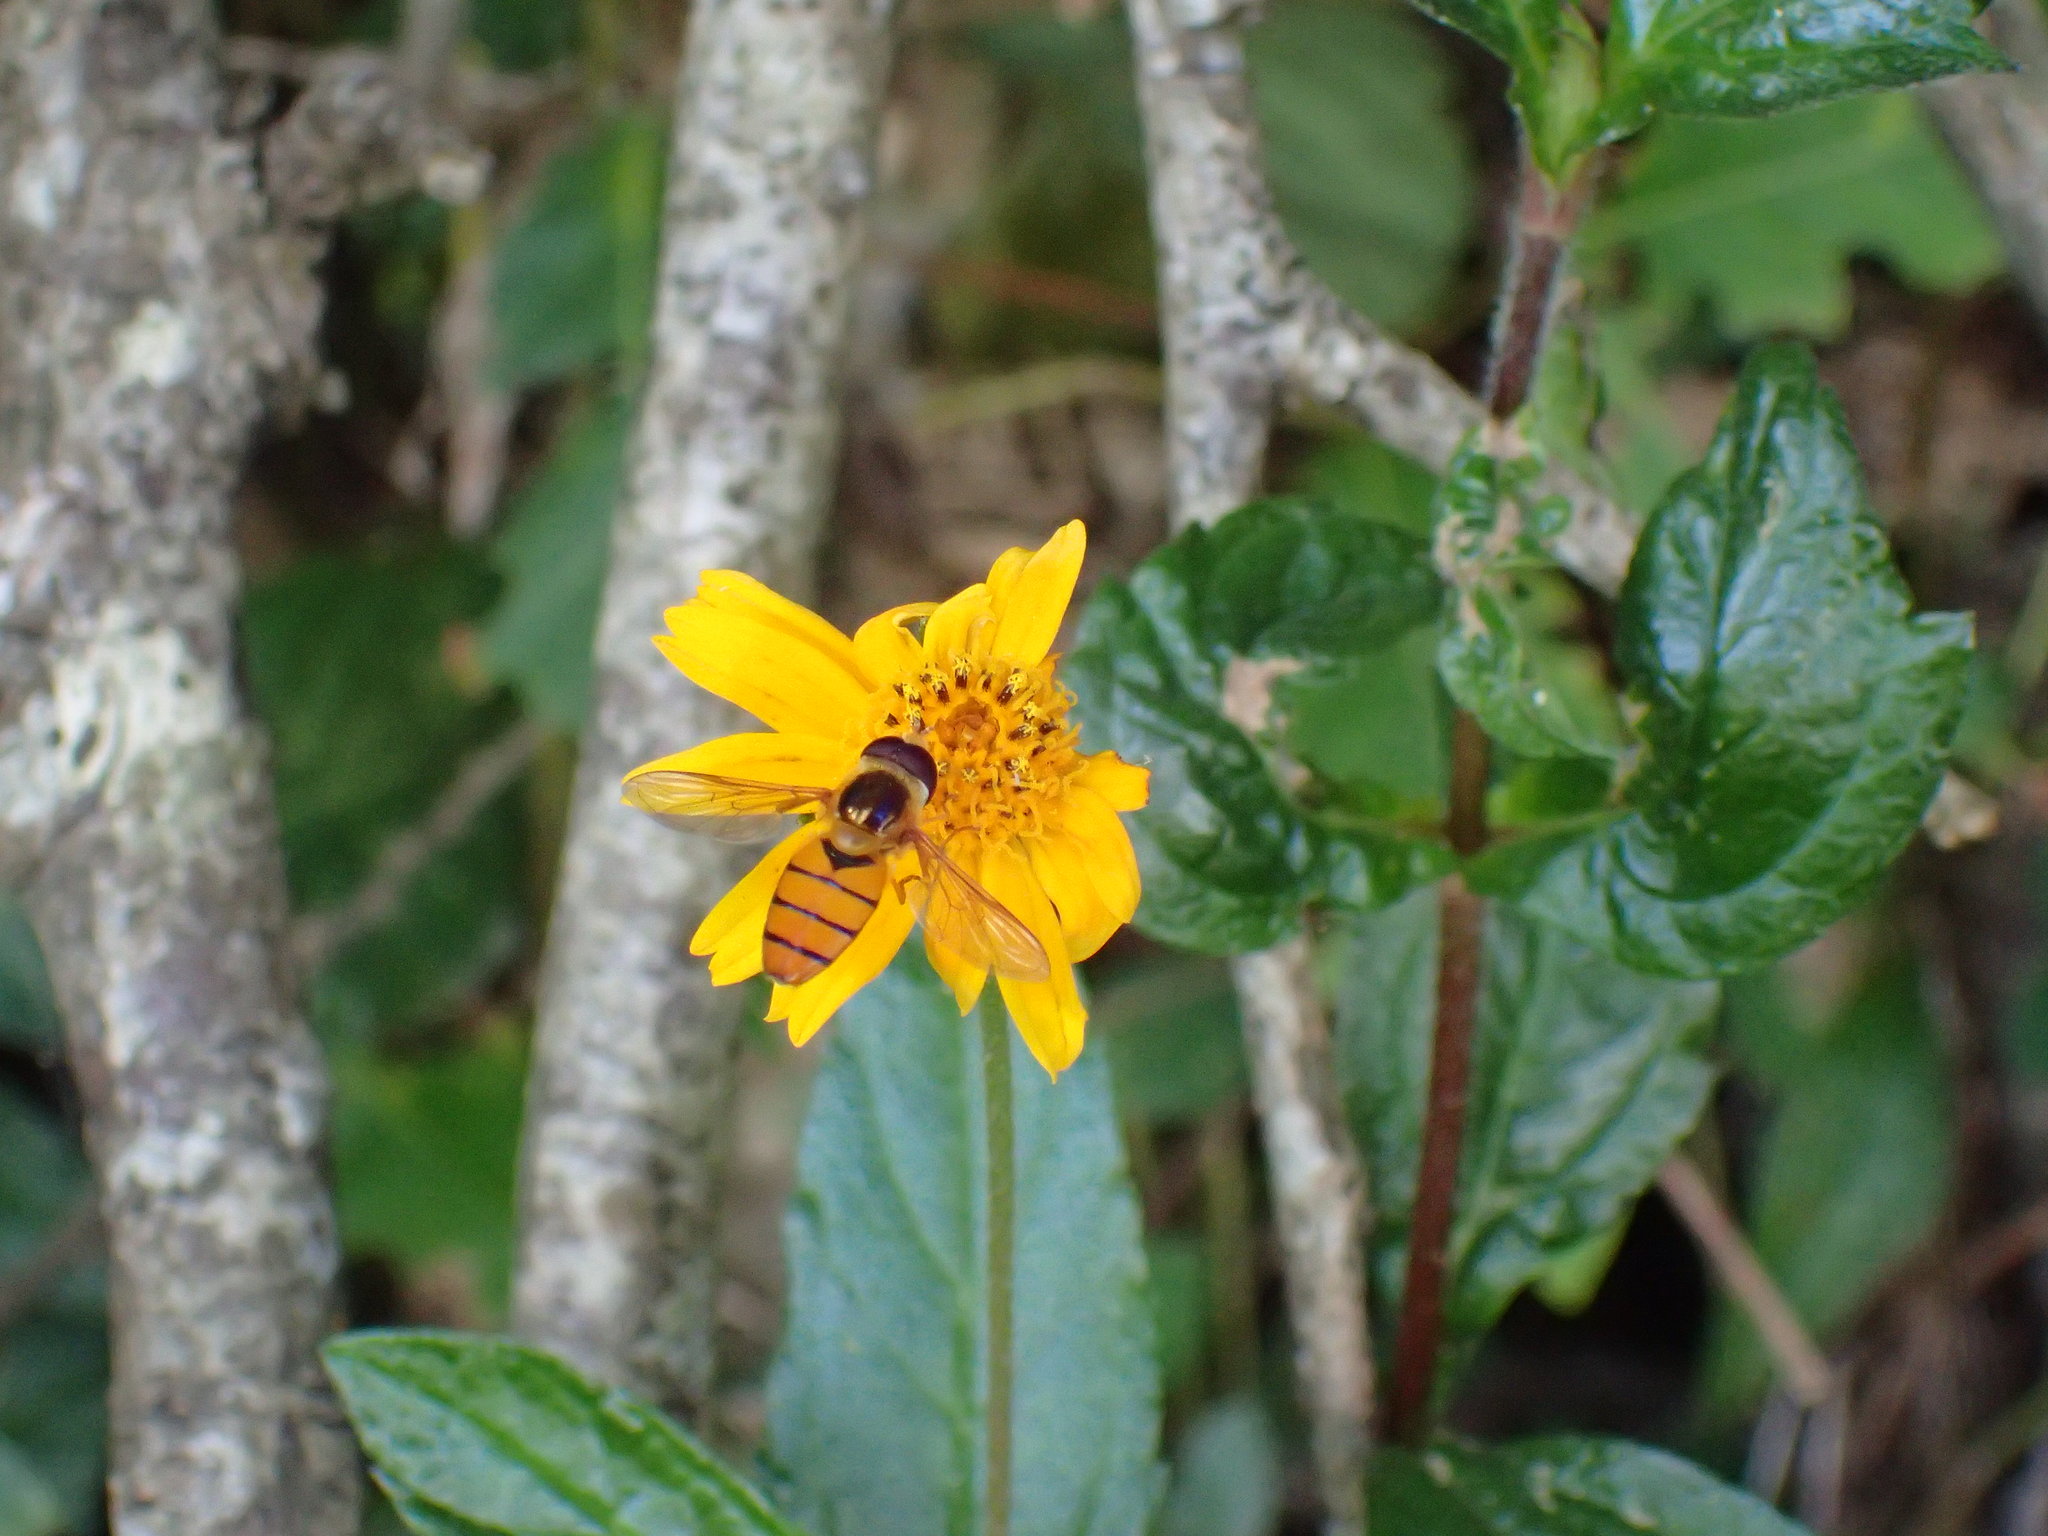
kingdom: Plantae
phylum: Tracheophyta
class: Magnoliopsida
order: Asterales
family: Asteraceae
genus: Sphagneticola
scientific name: Sphagneticola trilobata
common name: Bay biscayne creeping-oxeye
